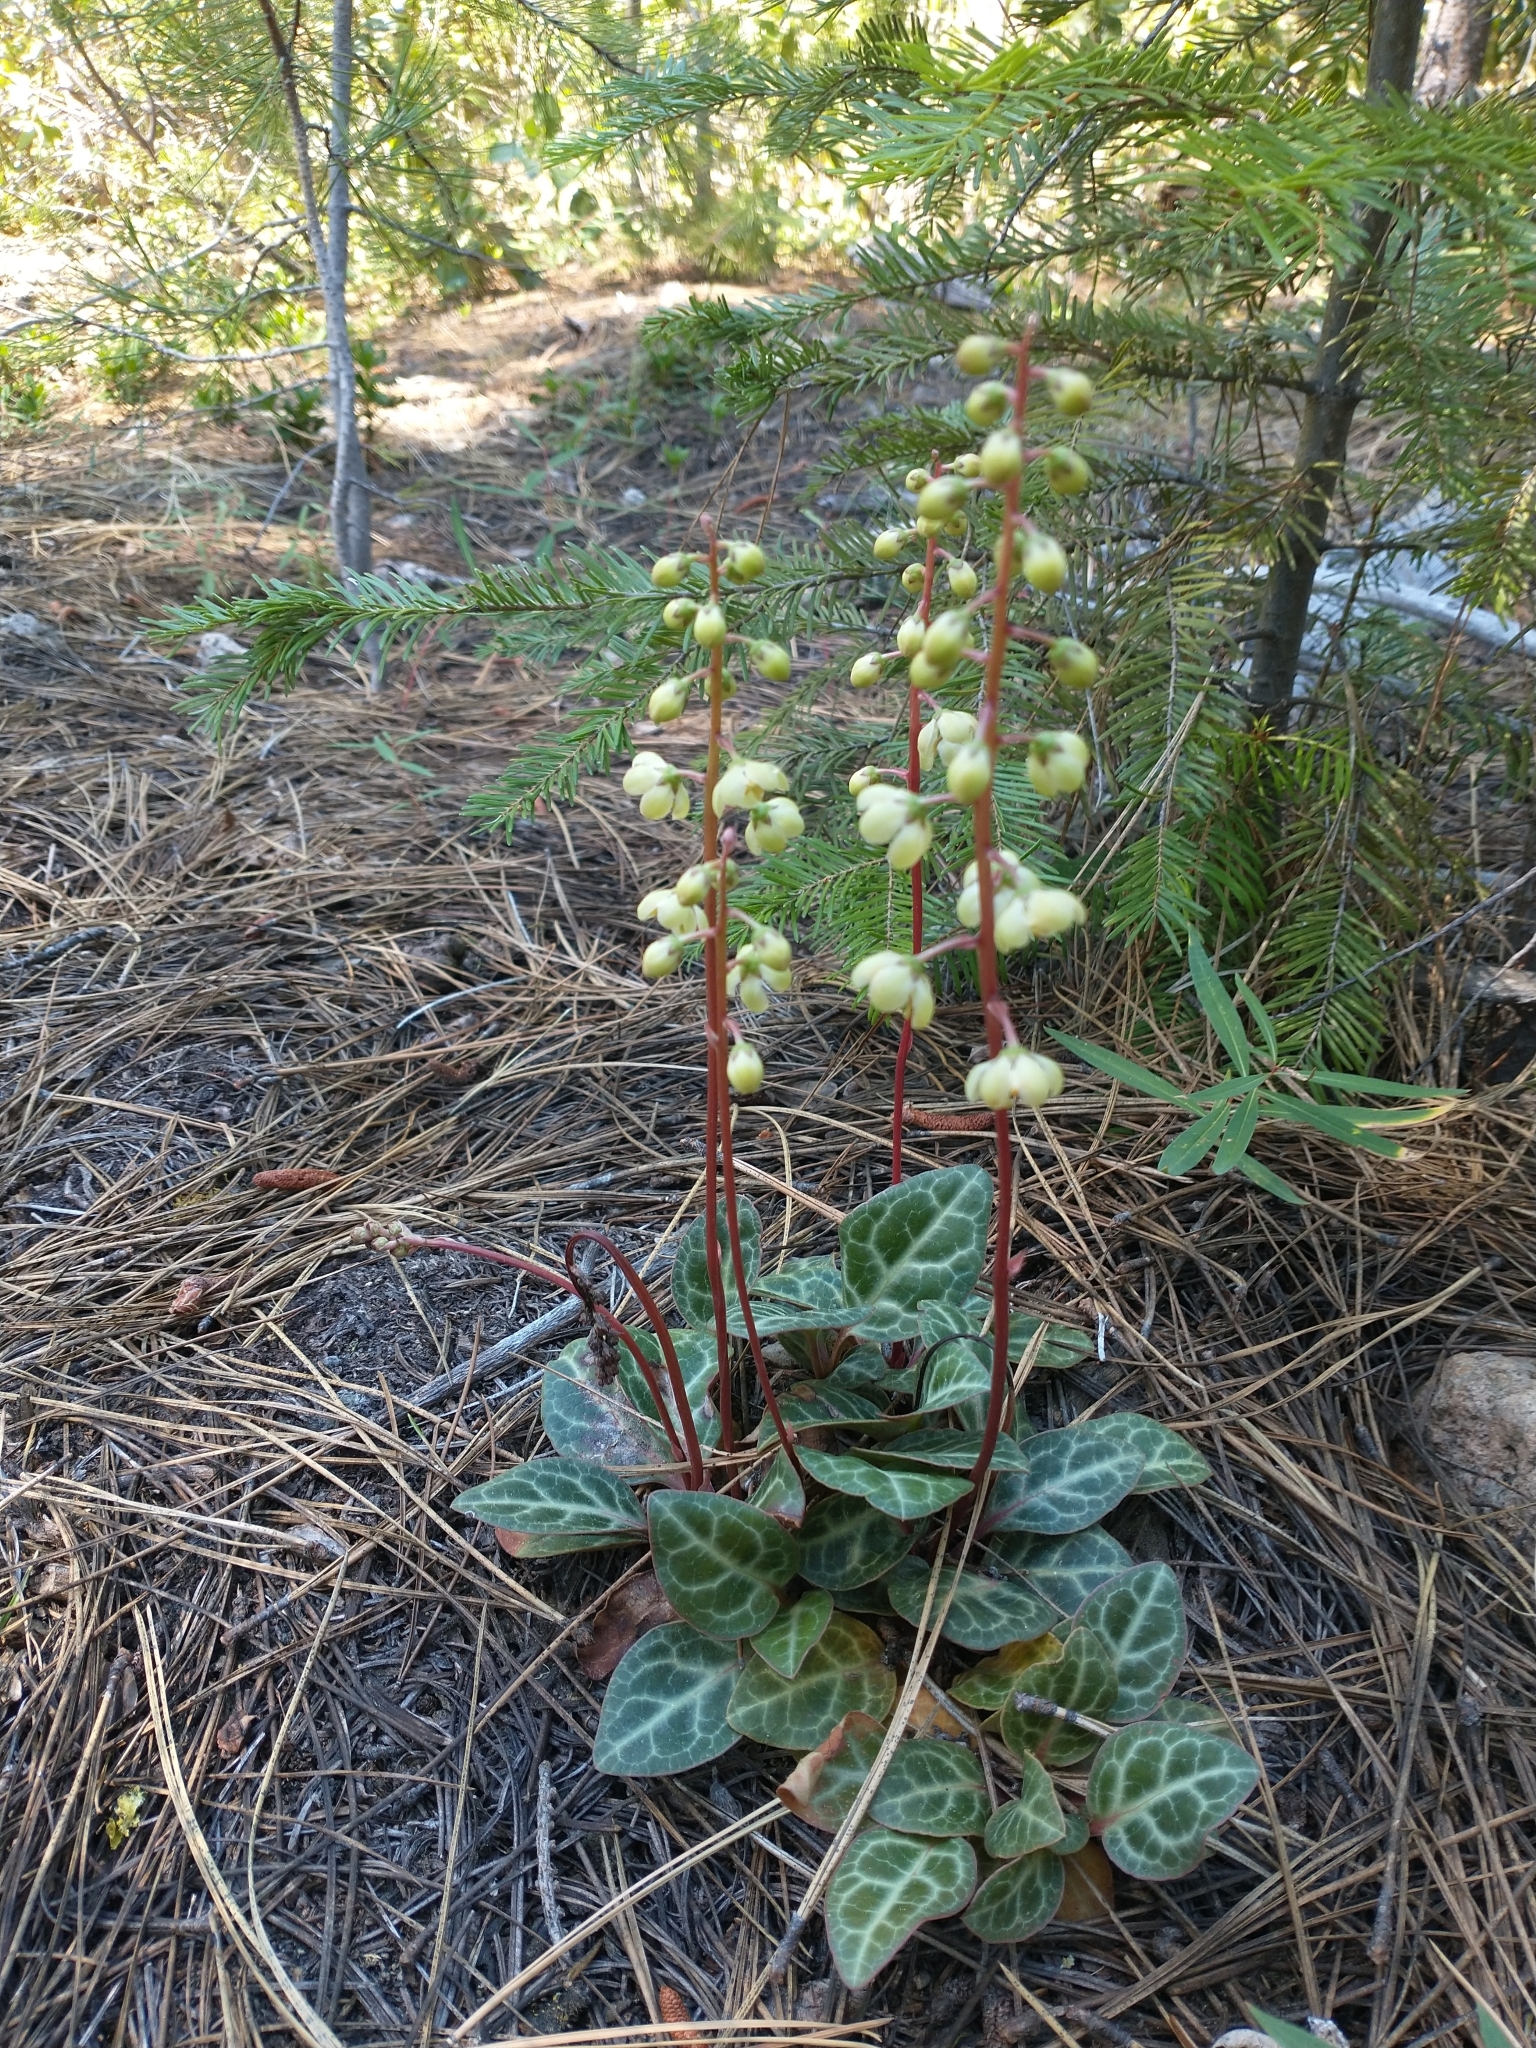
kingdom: Plantae
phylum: Tracheophyta
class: Magnoliopsida
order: Ericales
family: Ericaceae
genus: Pyrola
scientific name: Pyrola picta
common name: White-vein wintergreen
